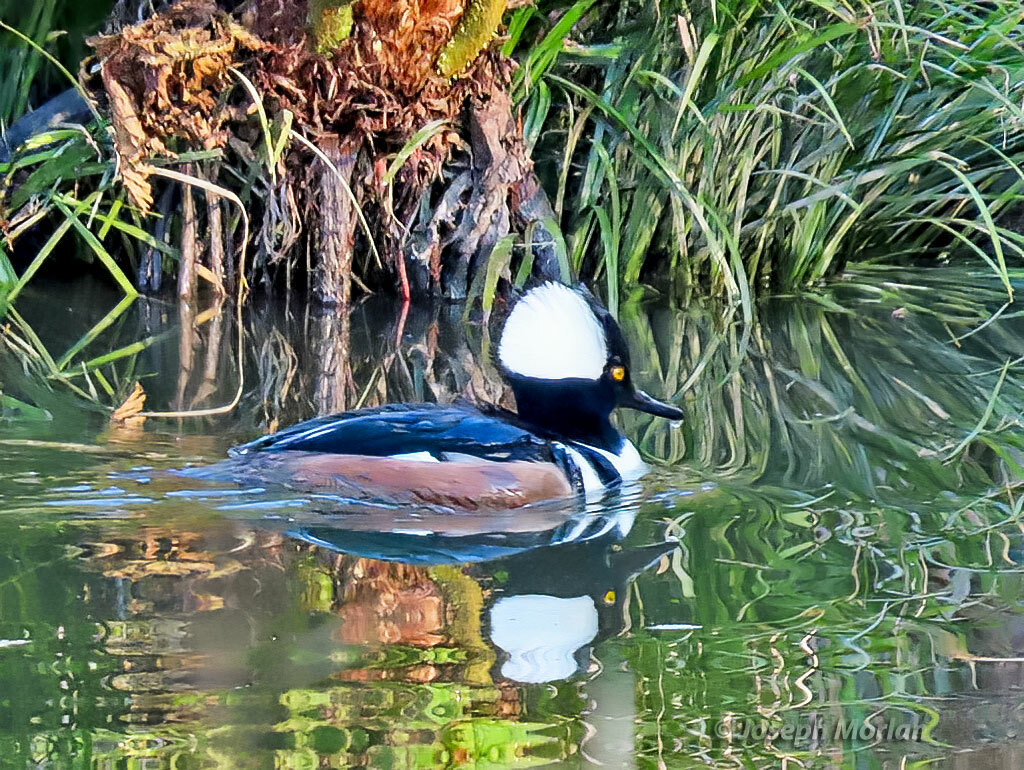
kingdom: Animalia
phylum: Chordata
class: Aves
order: Anseriformes
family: Anatidae
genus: Lophodytes
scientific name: Lophodytes cucullatus
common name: Hooded merganser
